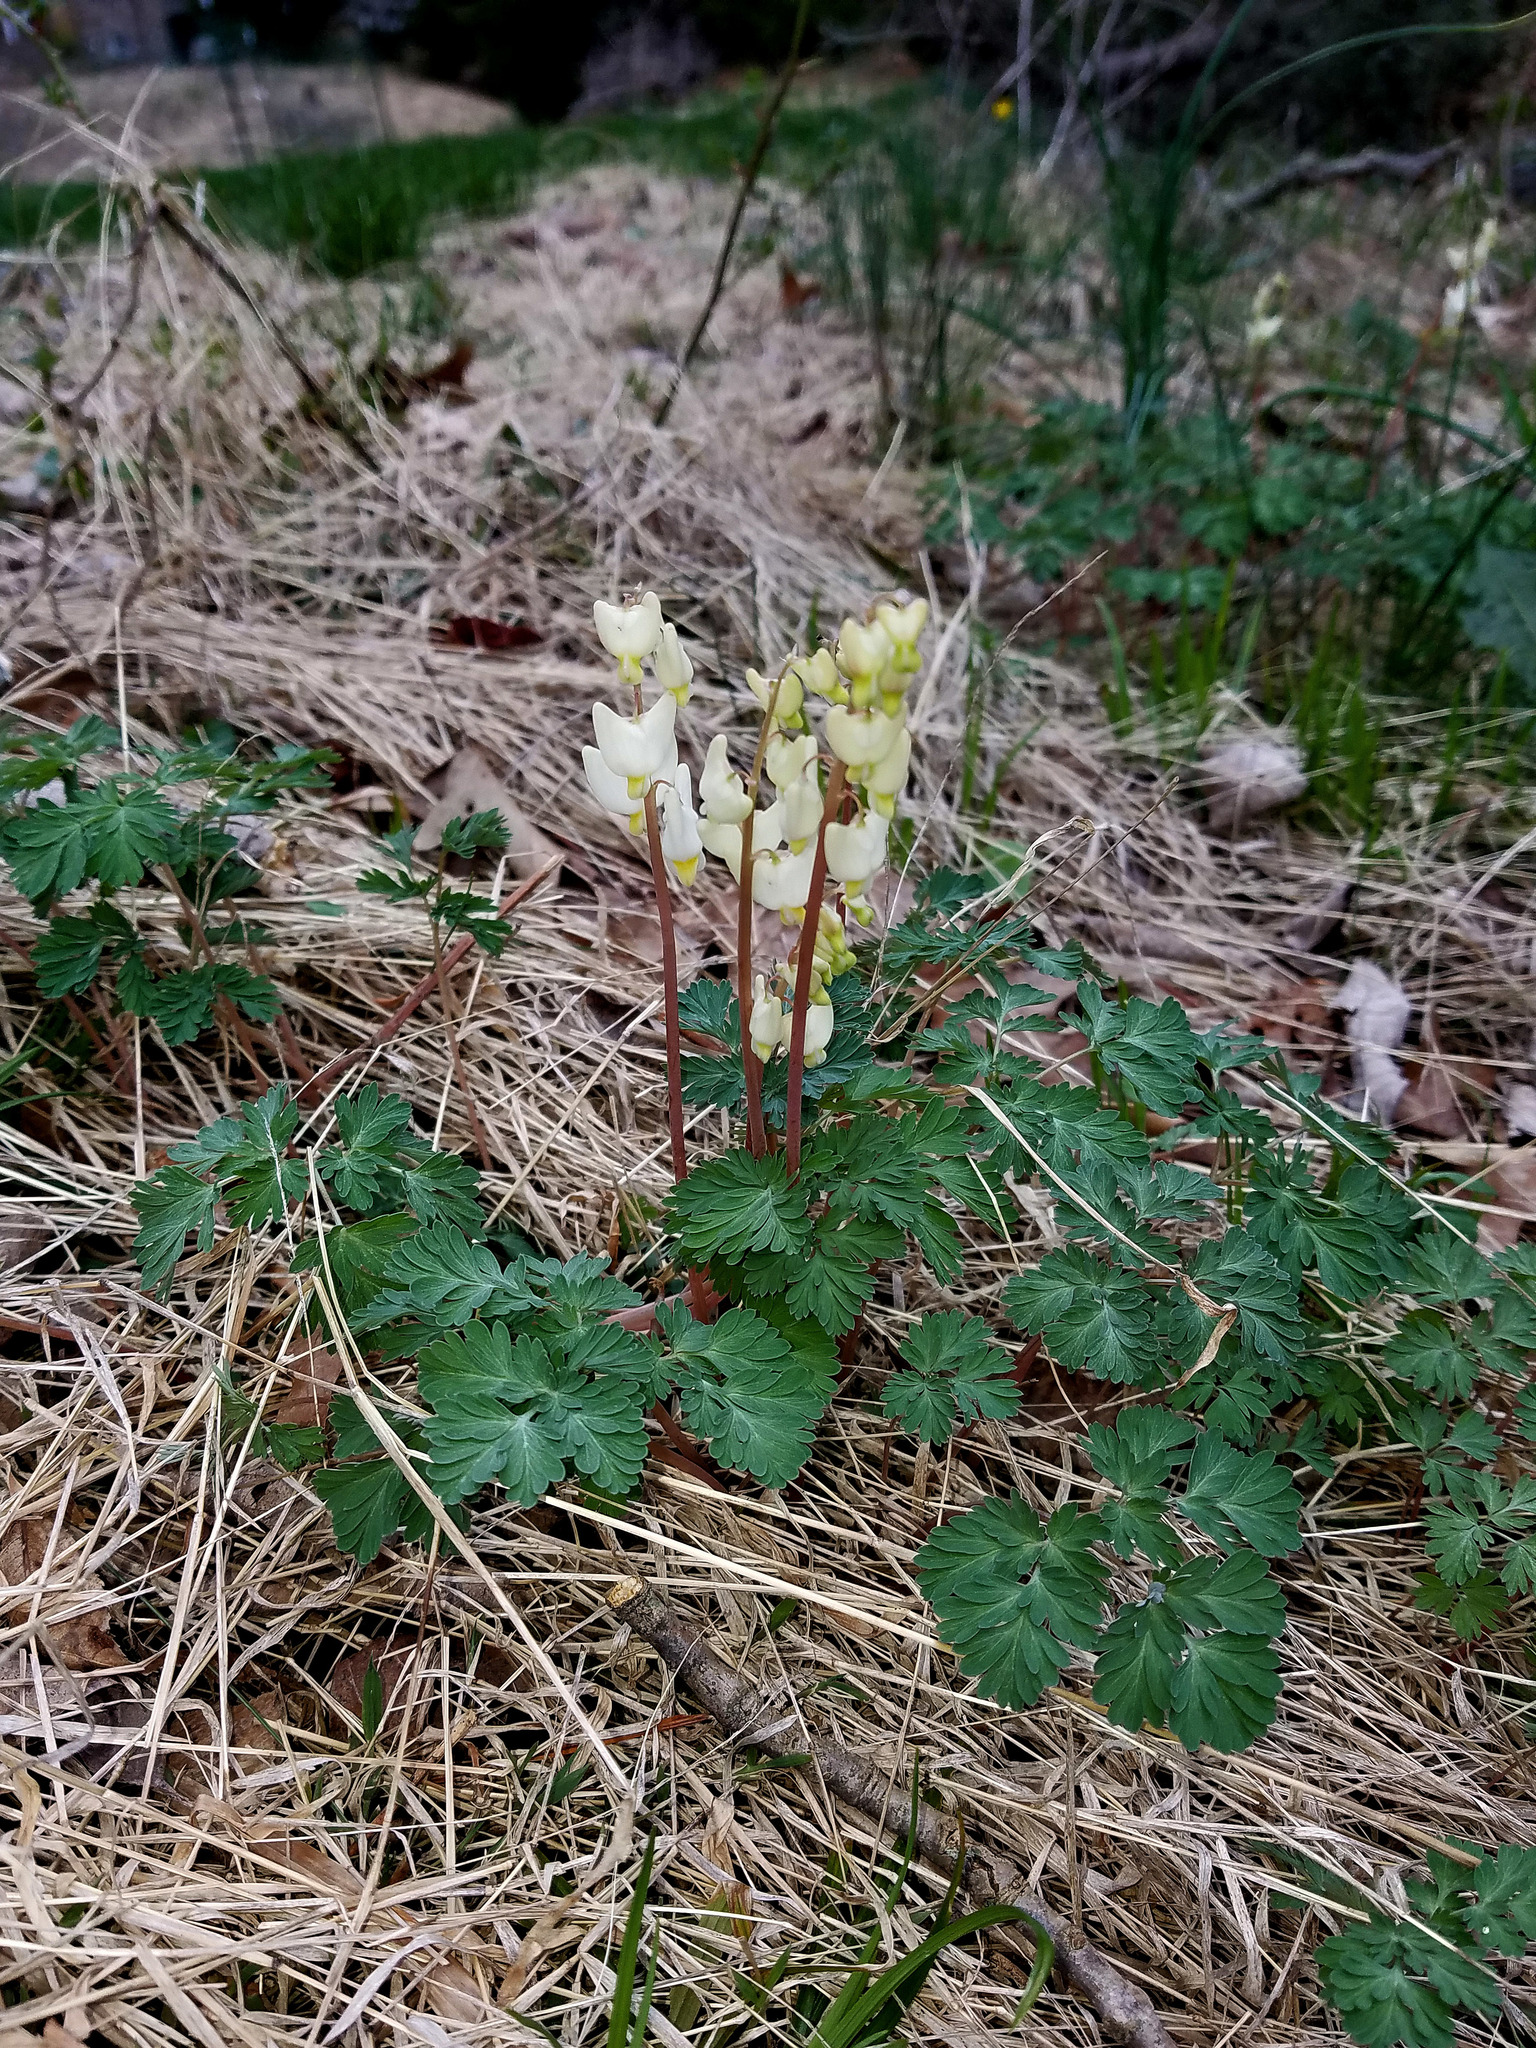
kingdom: Plantae
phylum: Tracheophyta
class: Magnoliopsida
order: Ranunculales
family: Papaveraceae
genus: Dicentra
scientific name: Dicentra cucullaria
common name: Dutchman's breeches
